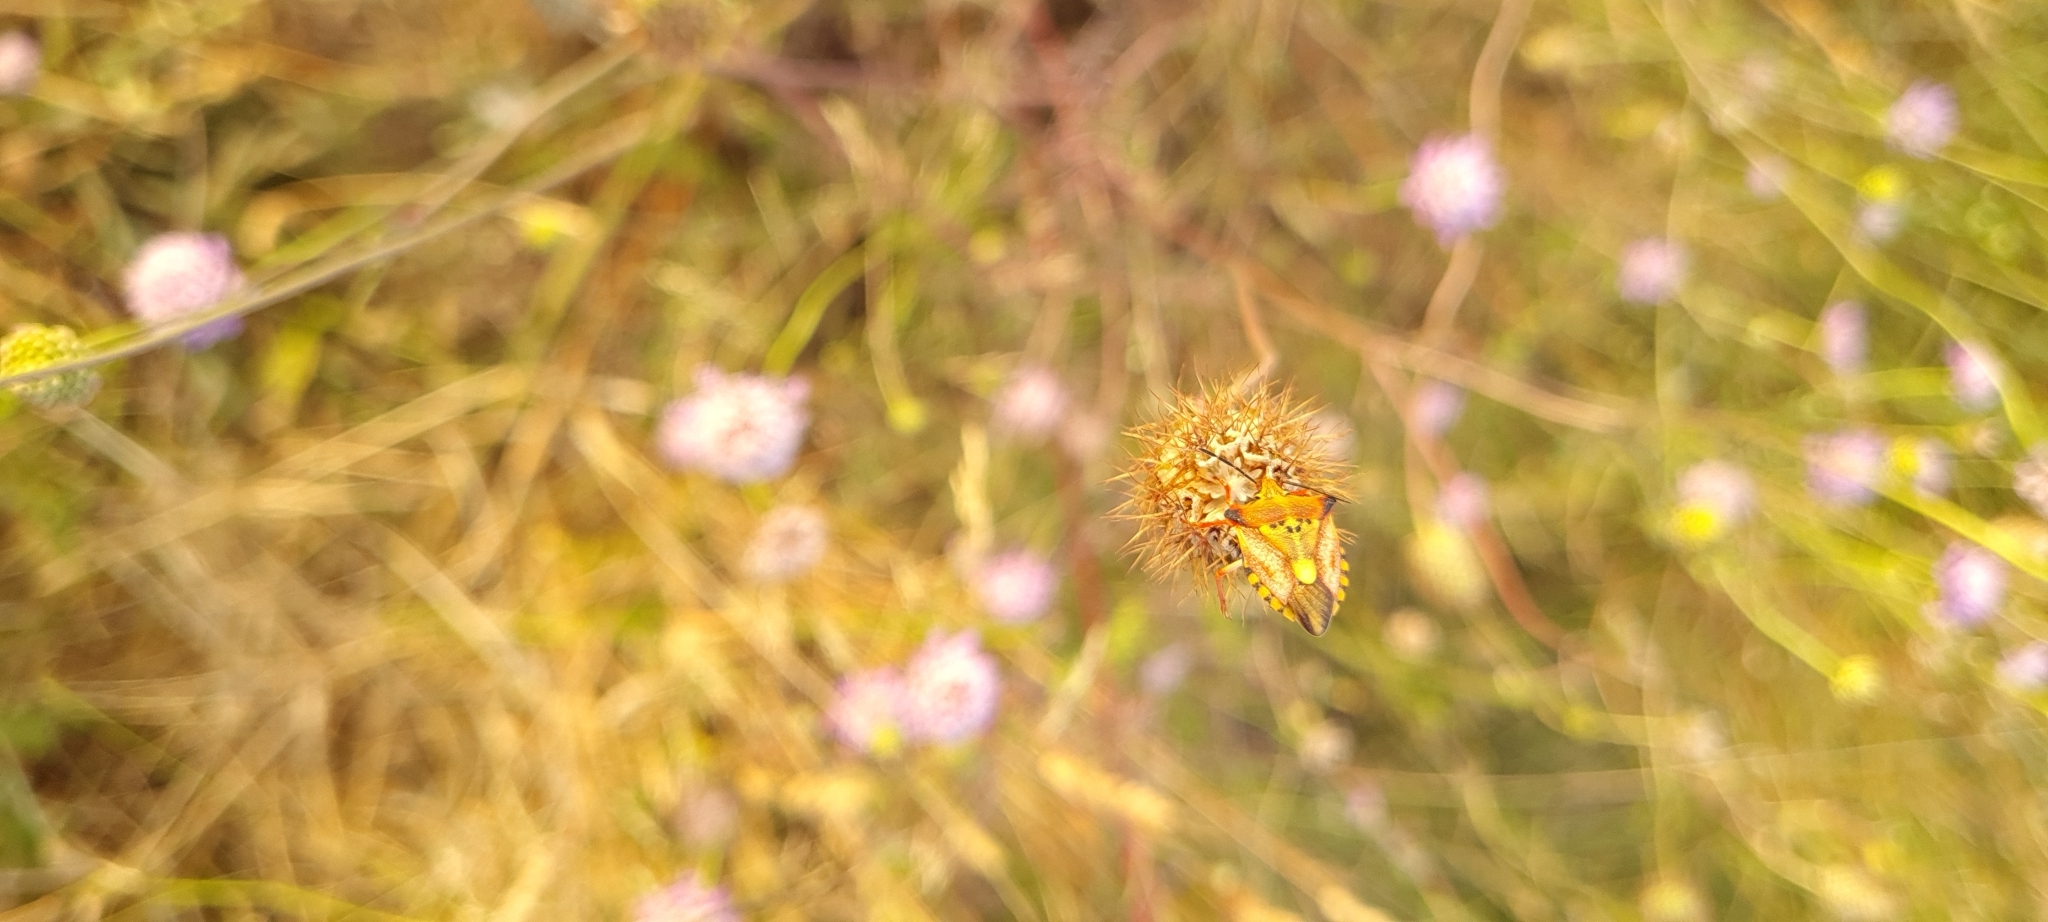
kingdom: Animalia
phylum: Arthropoda
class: Insecta
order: Hemiptera
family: Pentatomidae
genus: Carpocoris
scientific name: Carpocoris mediterraneus
